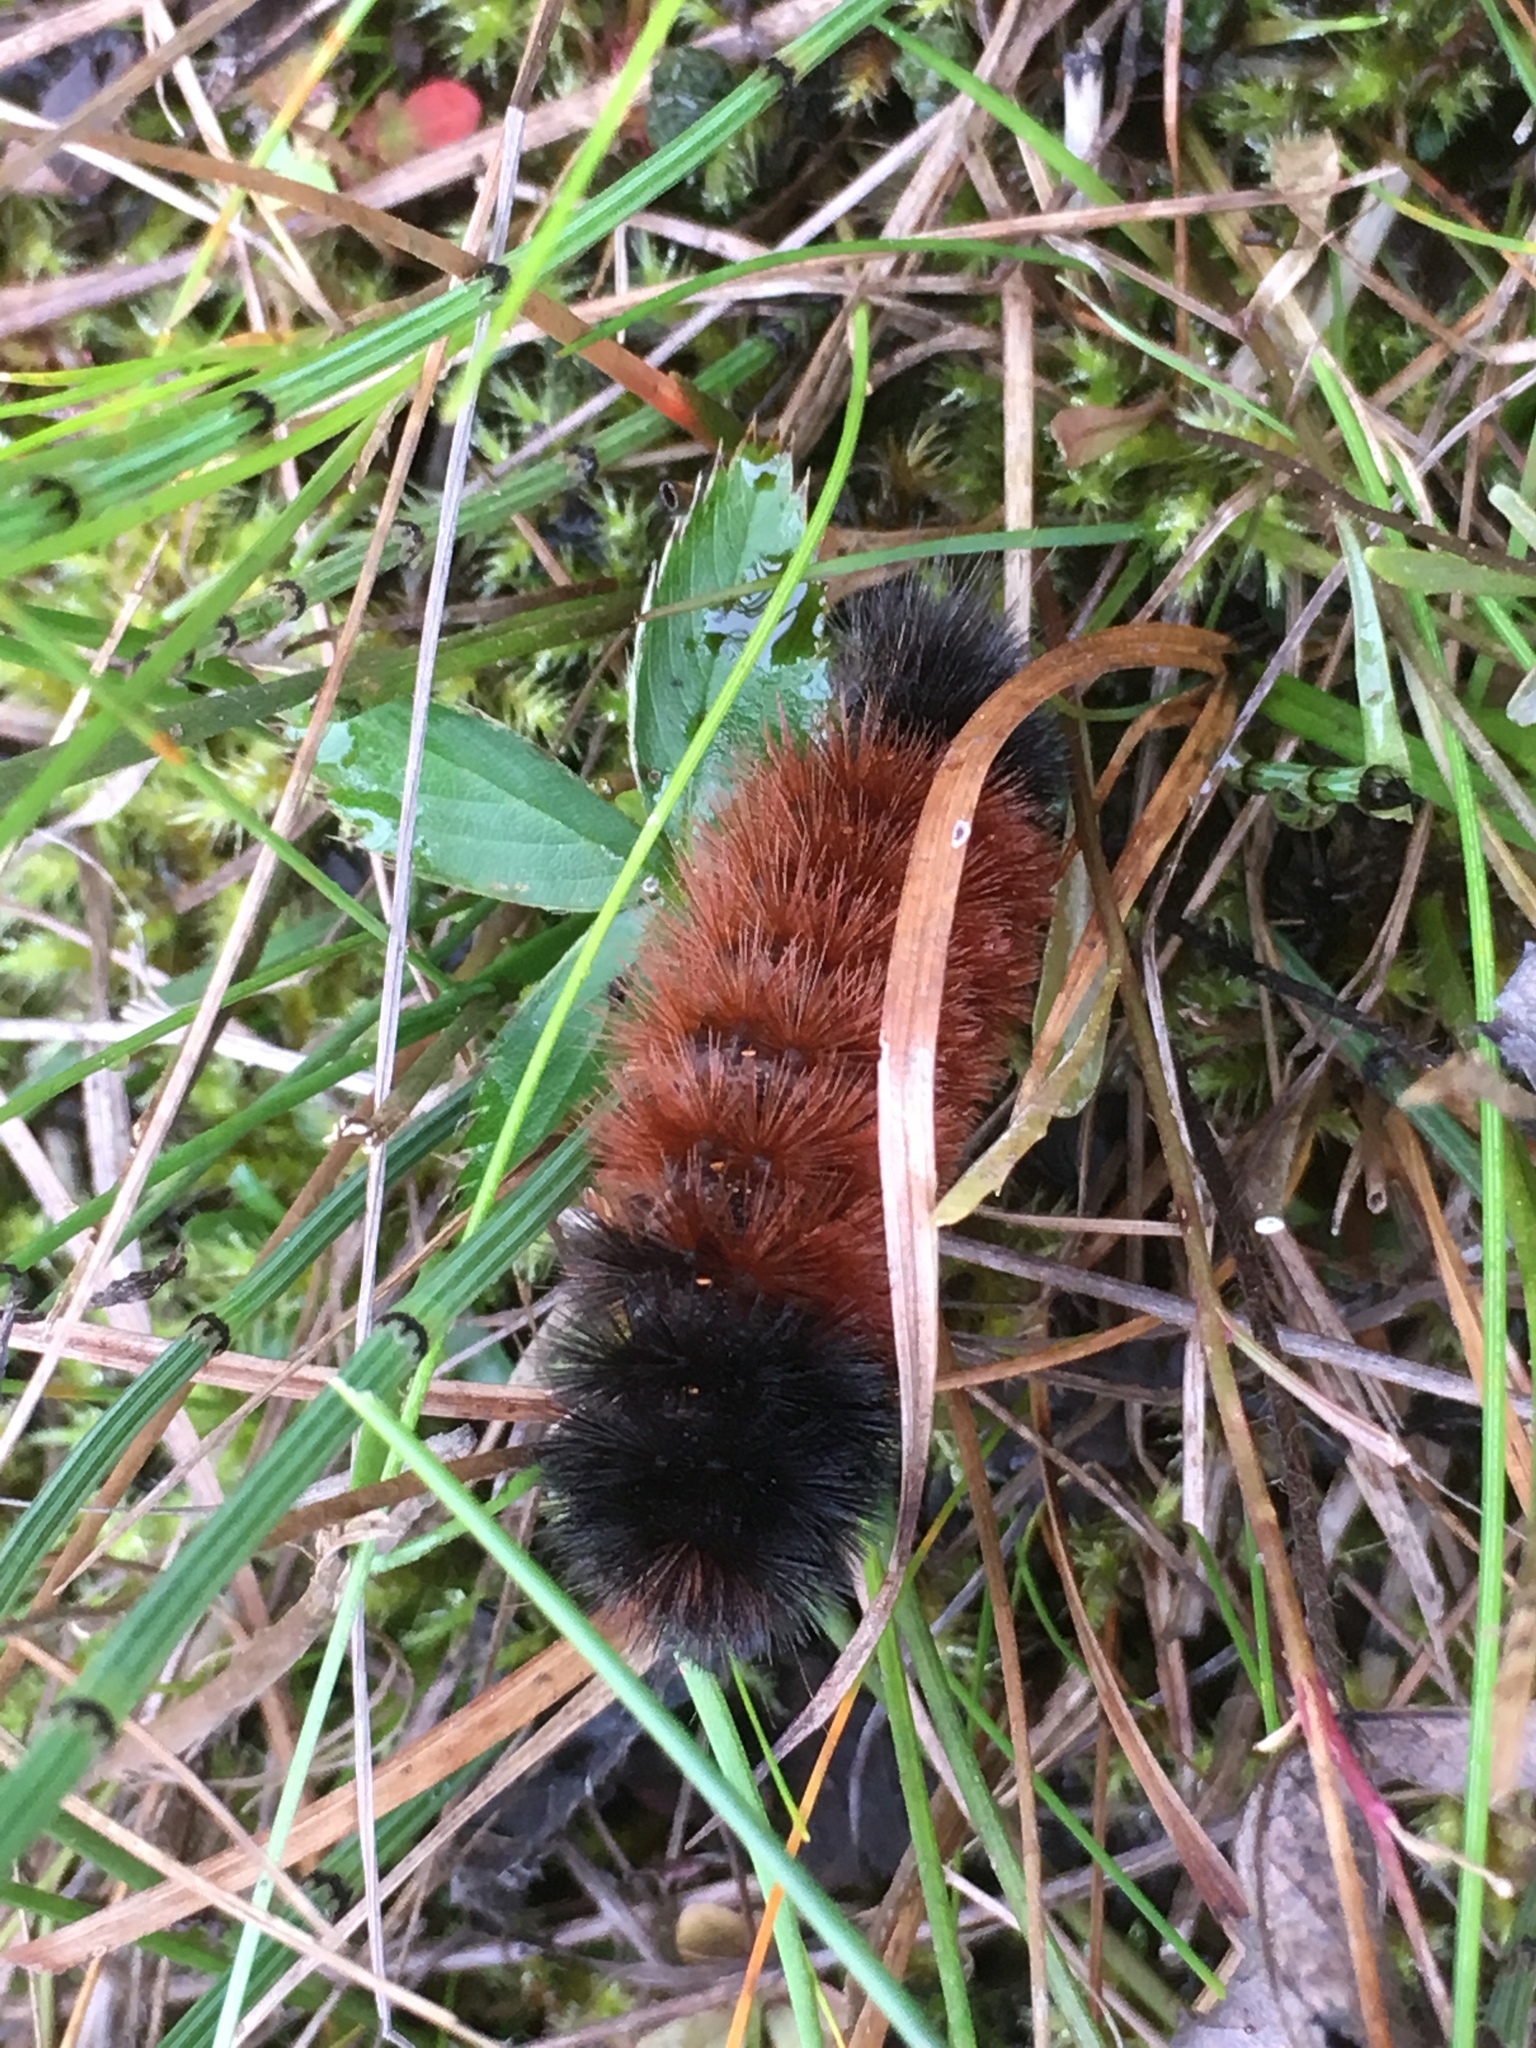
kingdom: Animalia
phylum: Arthropoda
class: Insecta
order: Lepidoptera
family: Erebidae
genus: Pyrrharctia
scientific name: Pyrrharctia isabella
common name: Isabella tiger moth
